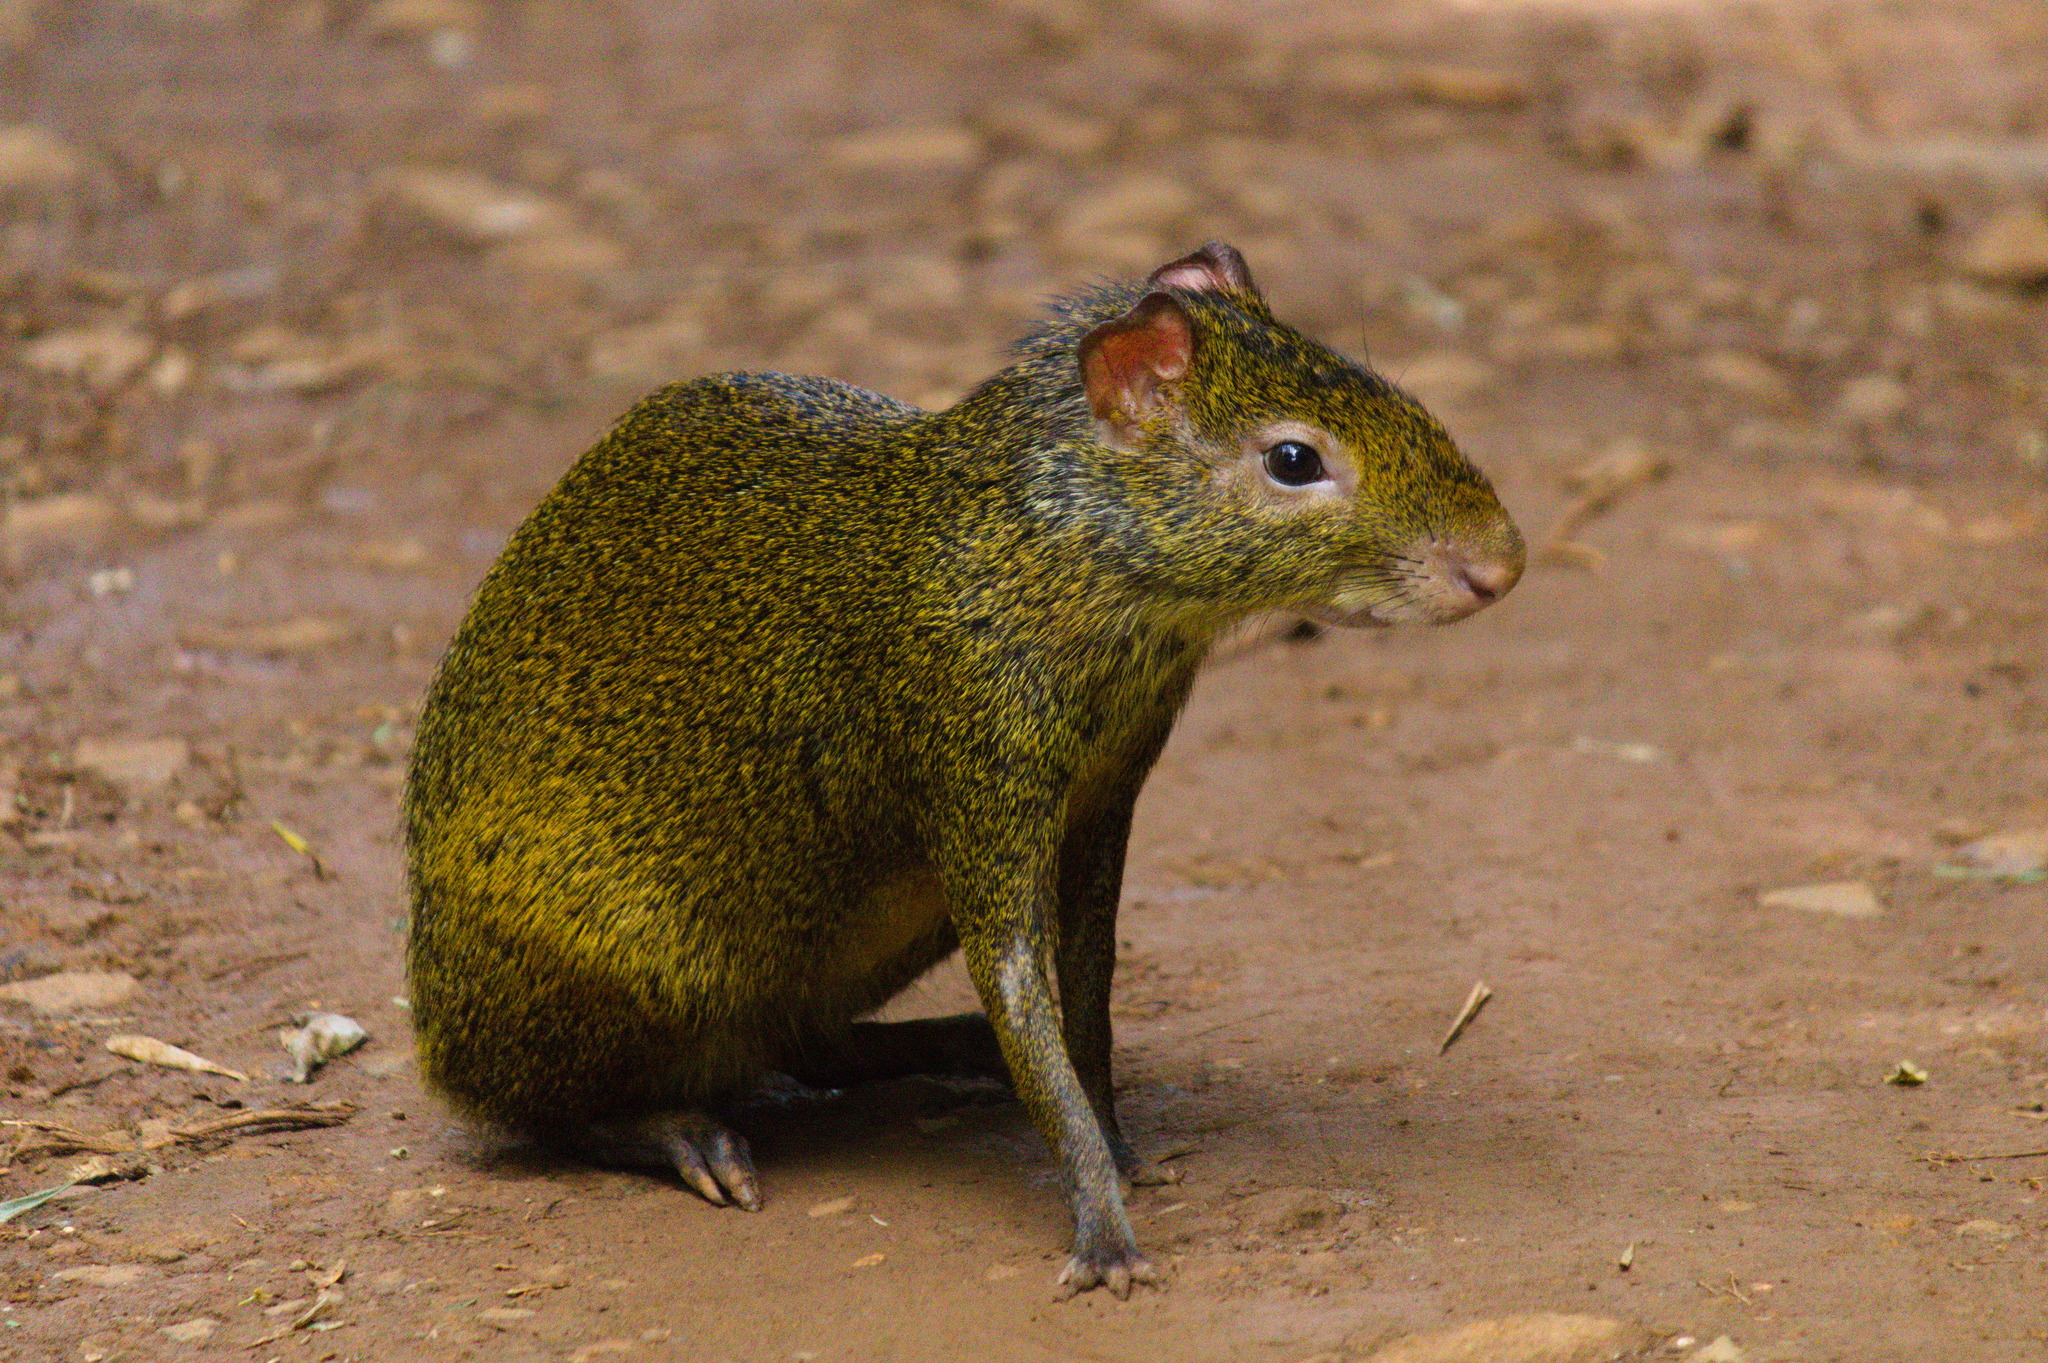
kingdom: Animalia
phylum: Chordata
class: Mammalia
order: Rodentia
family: Dasyproctidae
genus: Dasyprocta
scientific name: Dasyprocta azarae
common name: Azara's agouti
